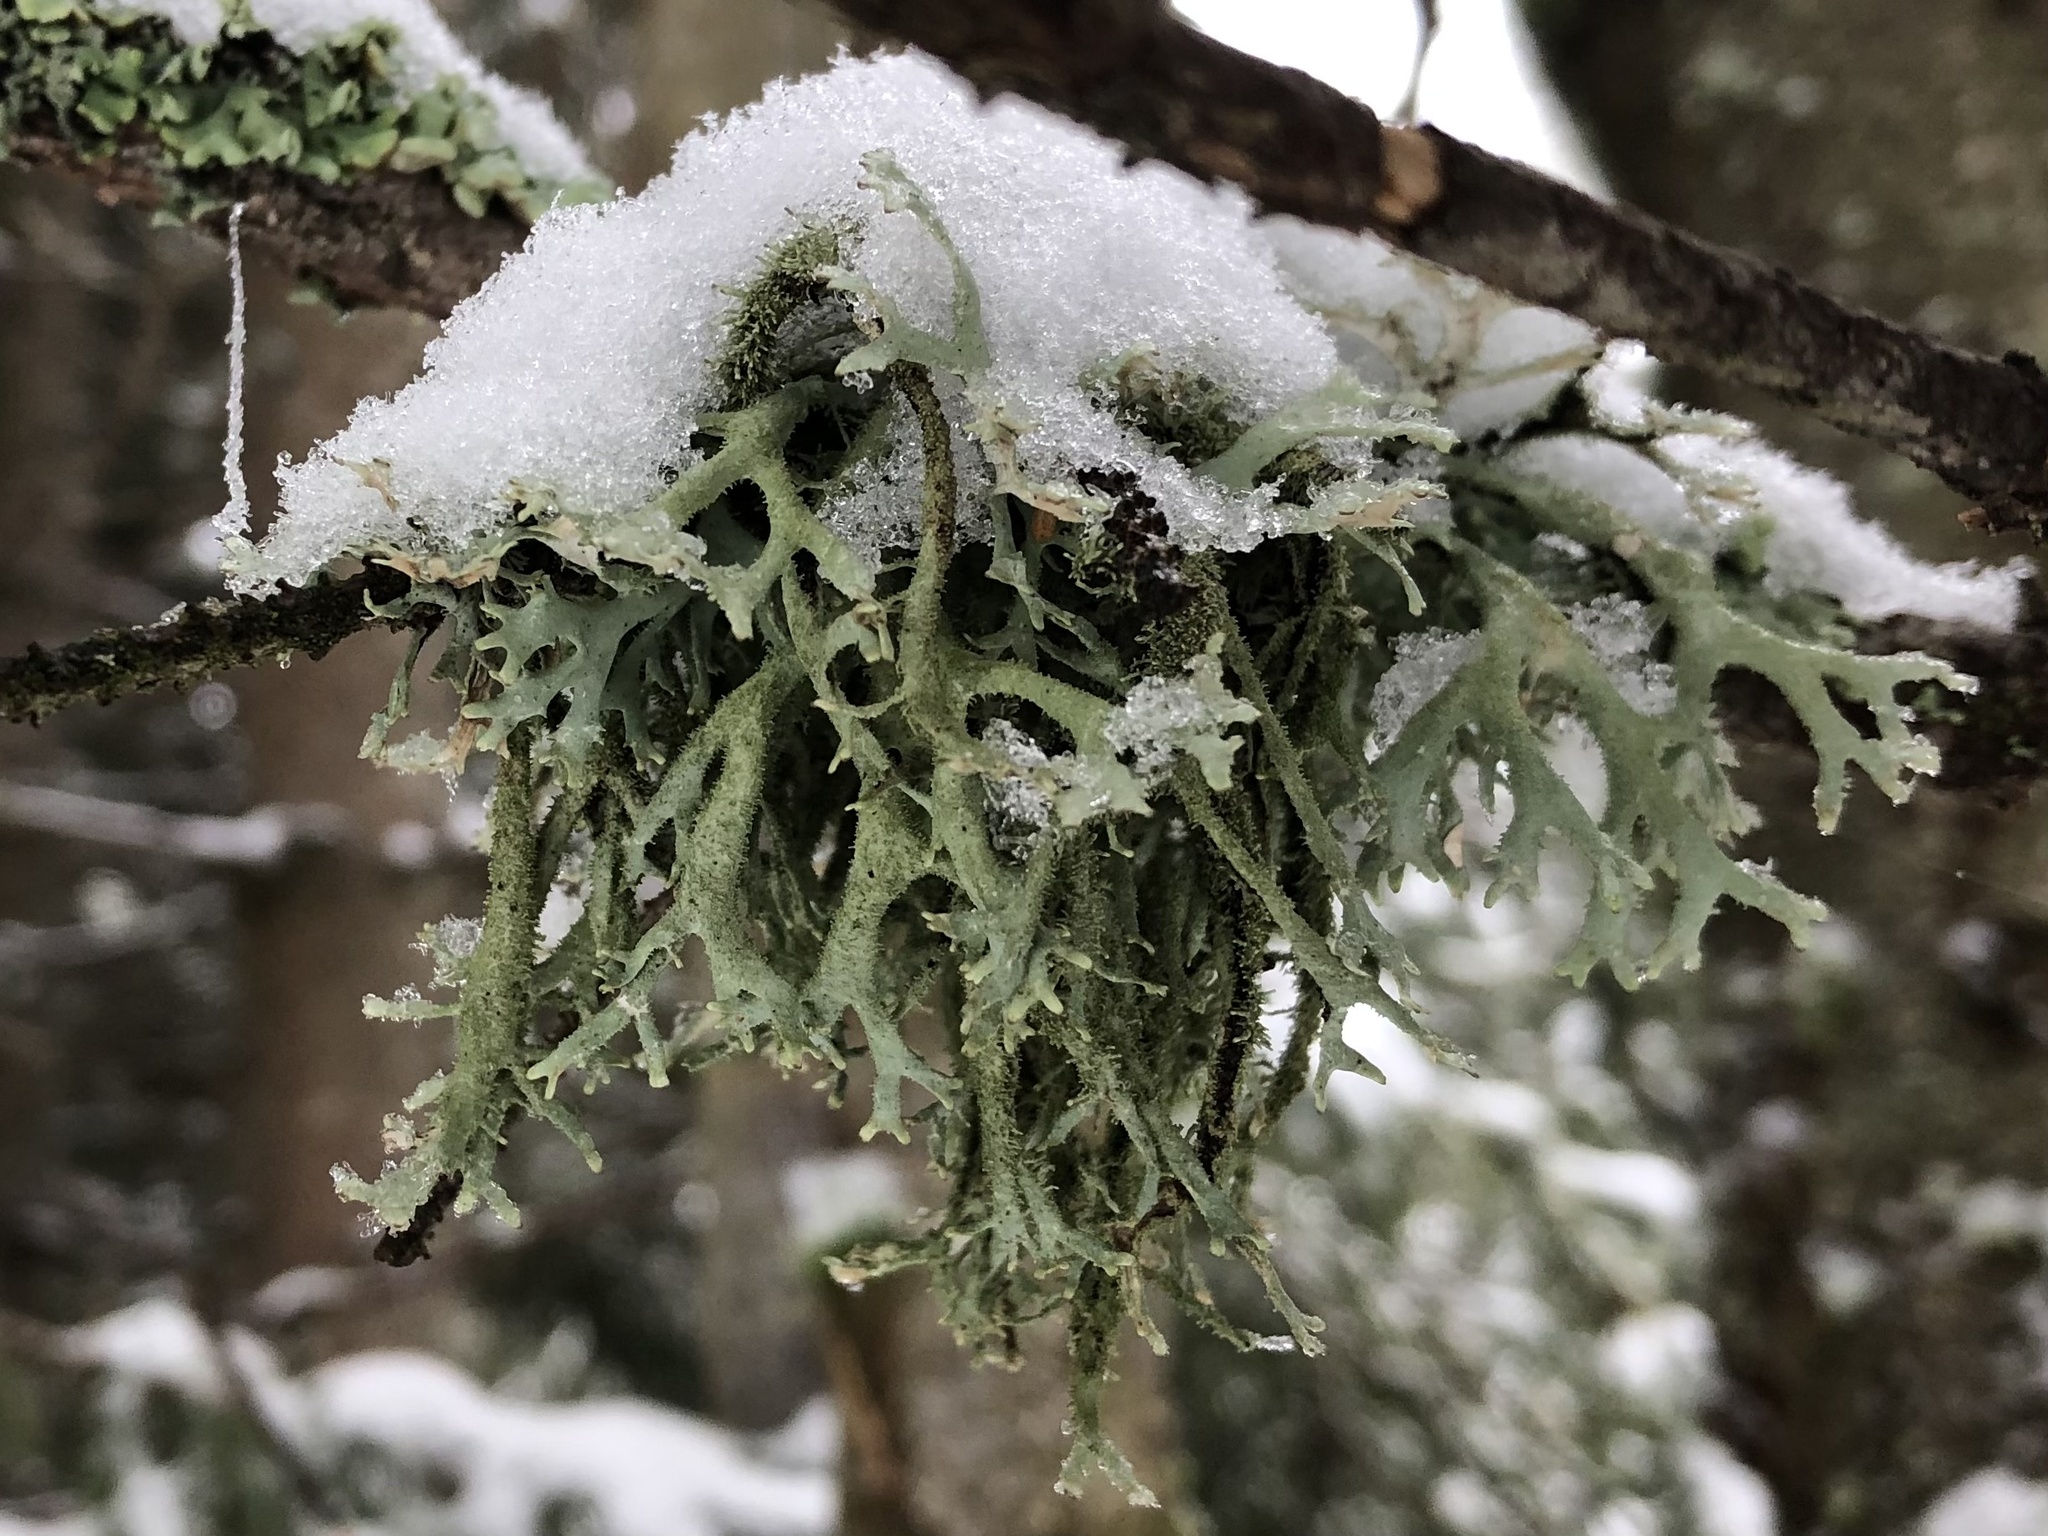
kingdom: Fungi
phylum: Ascomycota
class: Lecanoromycetes
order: Lecanorales
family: Parmeliaceae
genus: Pseudevernia
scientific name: Pseudevernia furfuracea
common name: Tree moss
